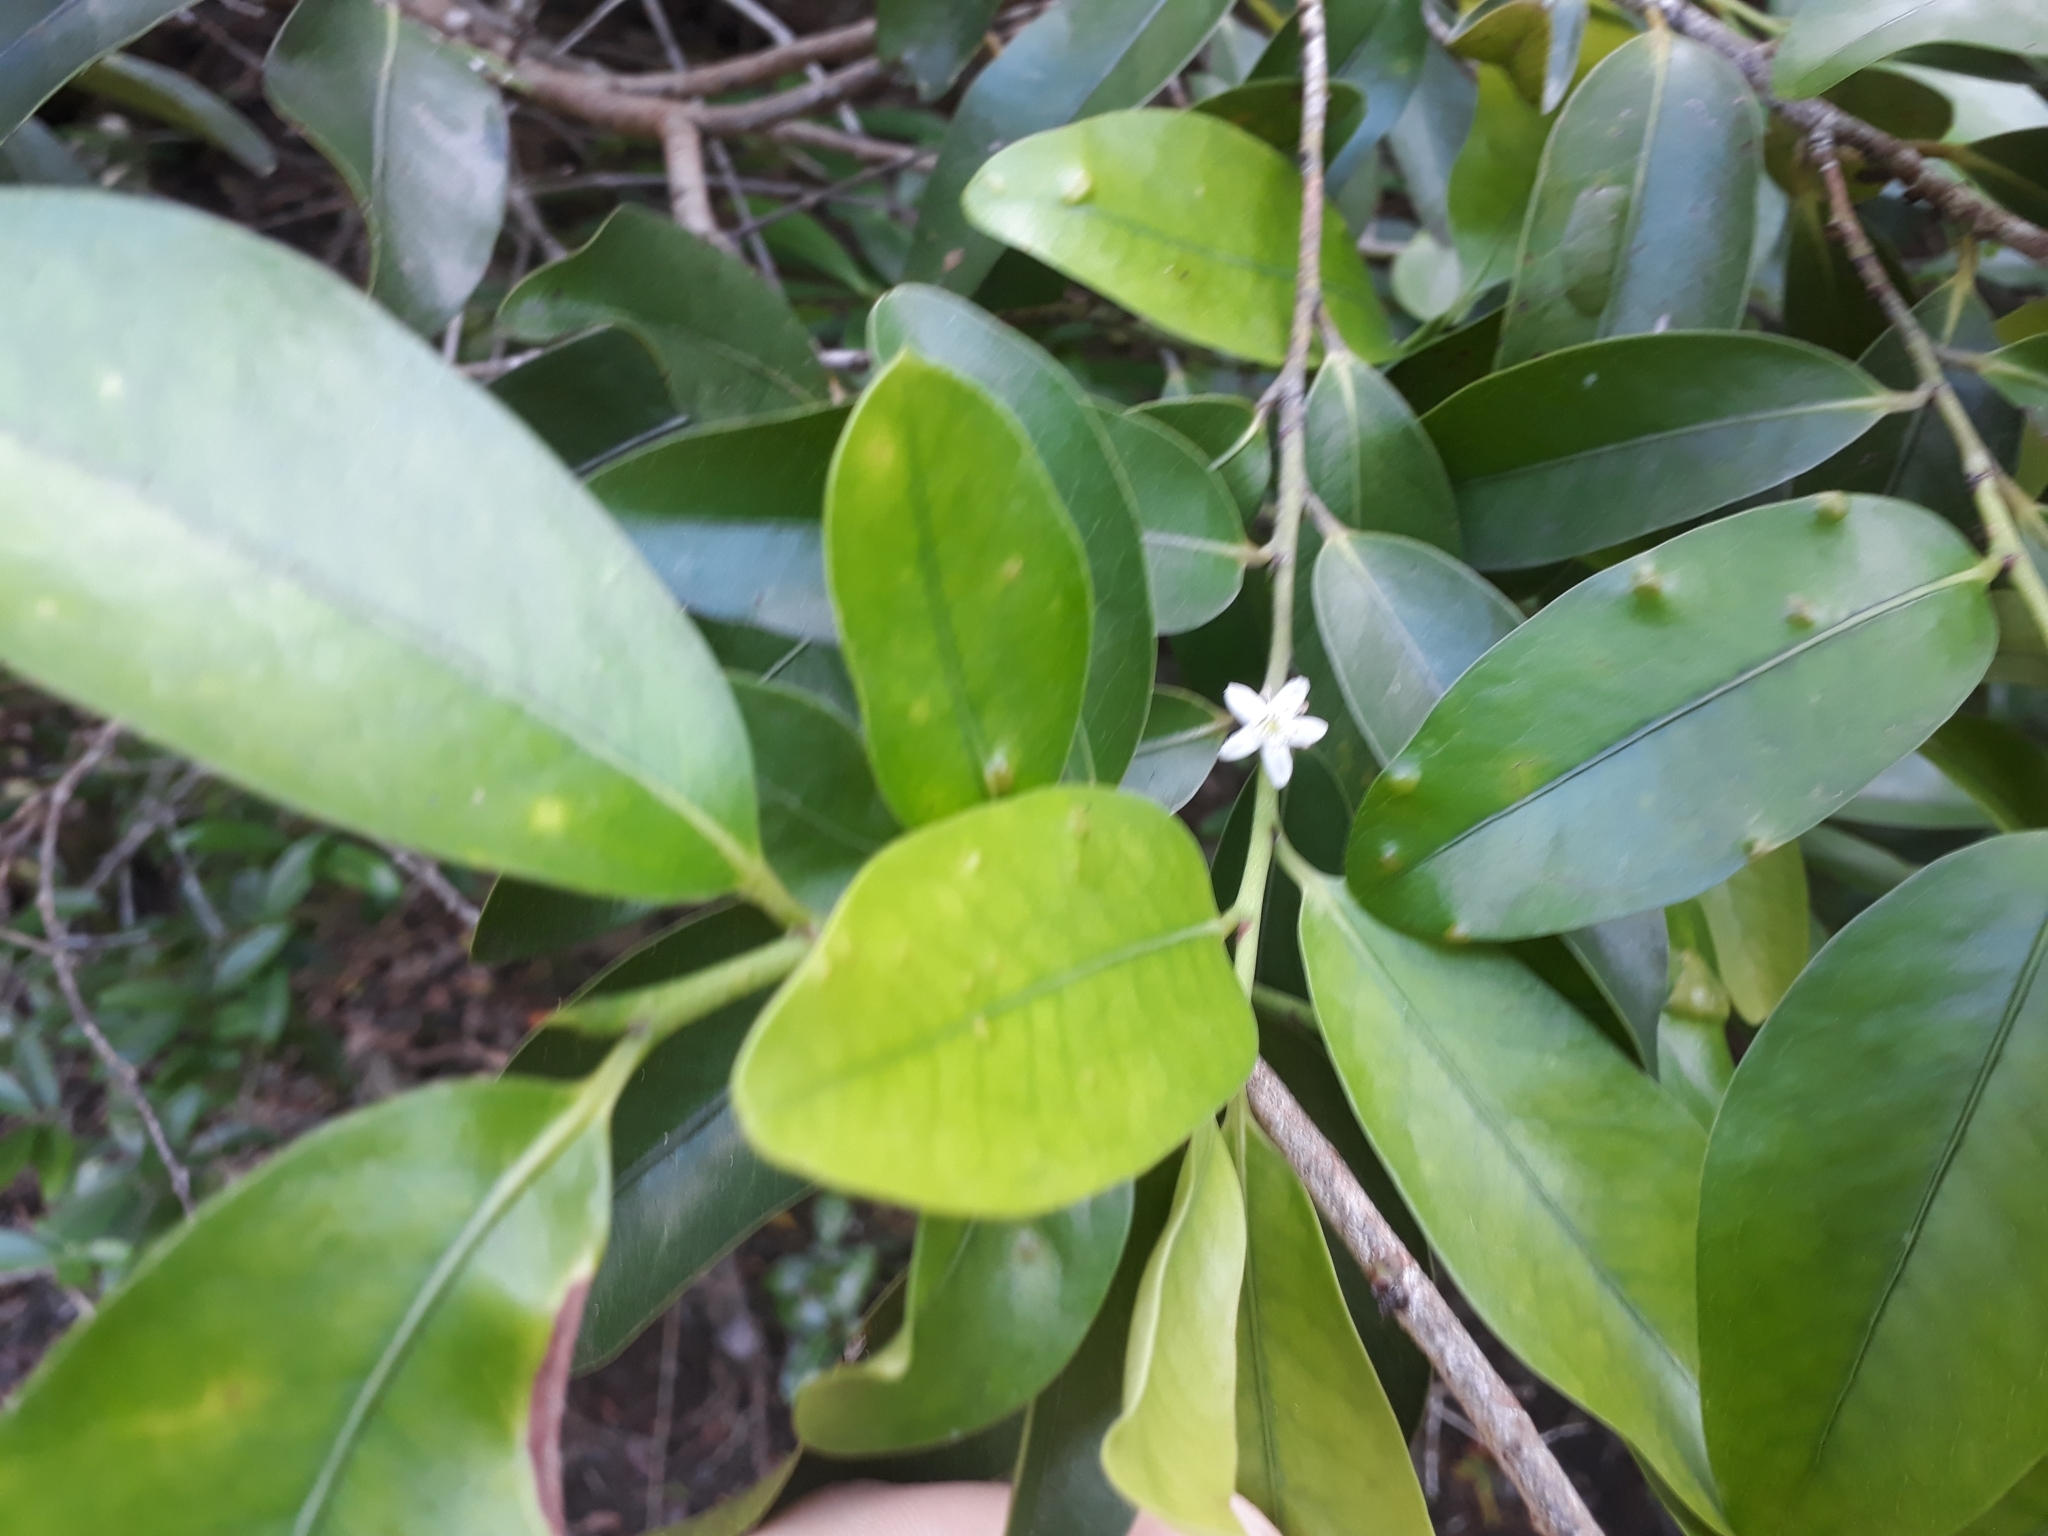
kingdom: Plantae
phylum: Tracheophyta
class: Magnoliopsida
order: Malpighiales
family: Erythroxylaceae
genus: Erythroxylum
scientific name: Erythroxylum sideroxyloides
